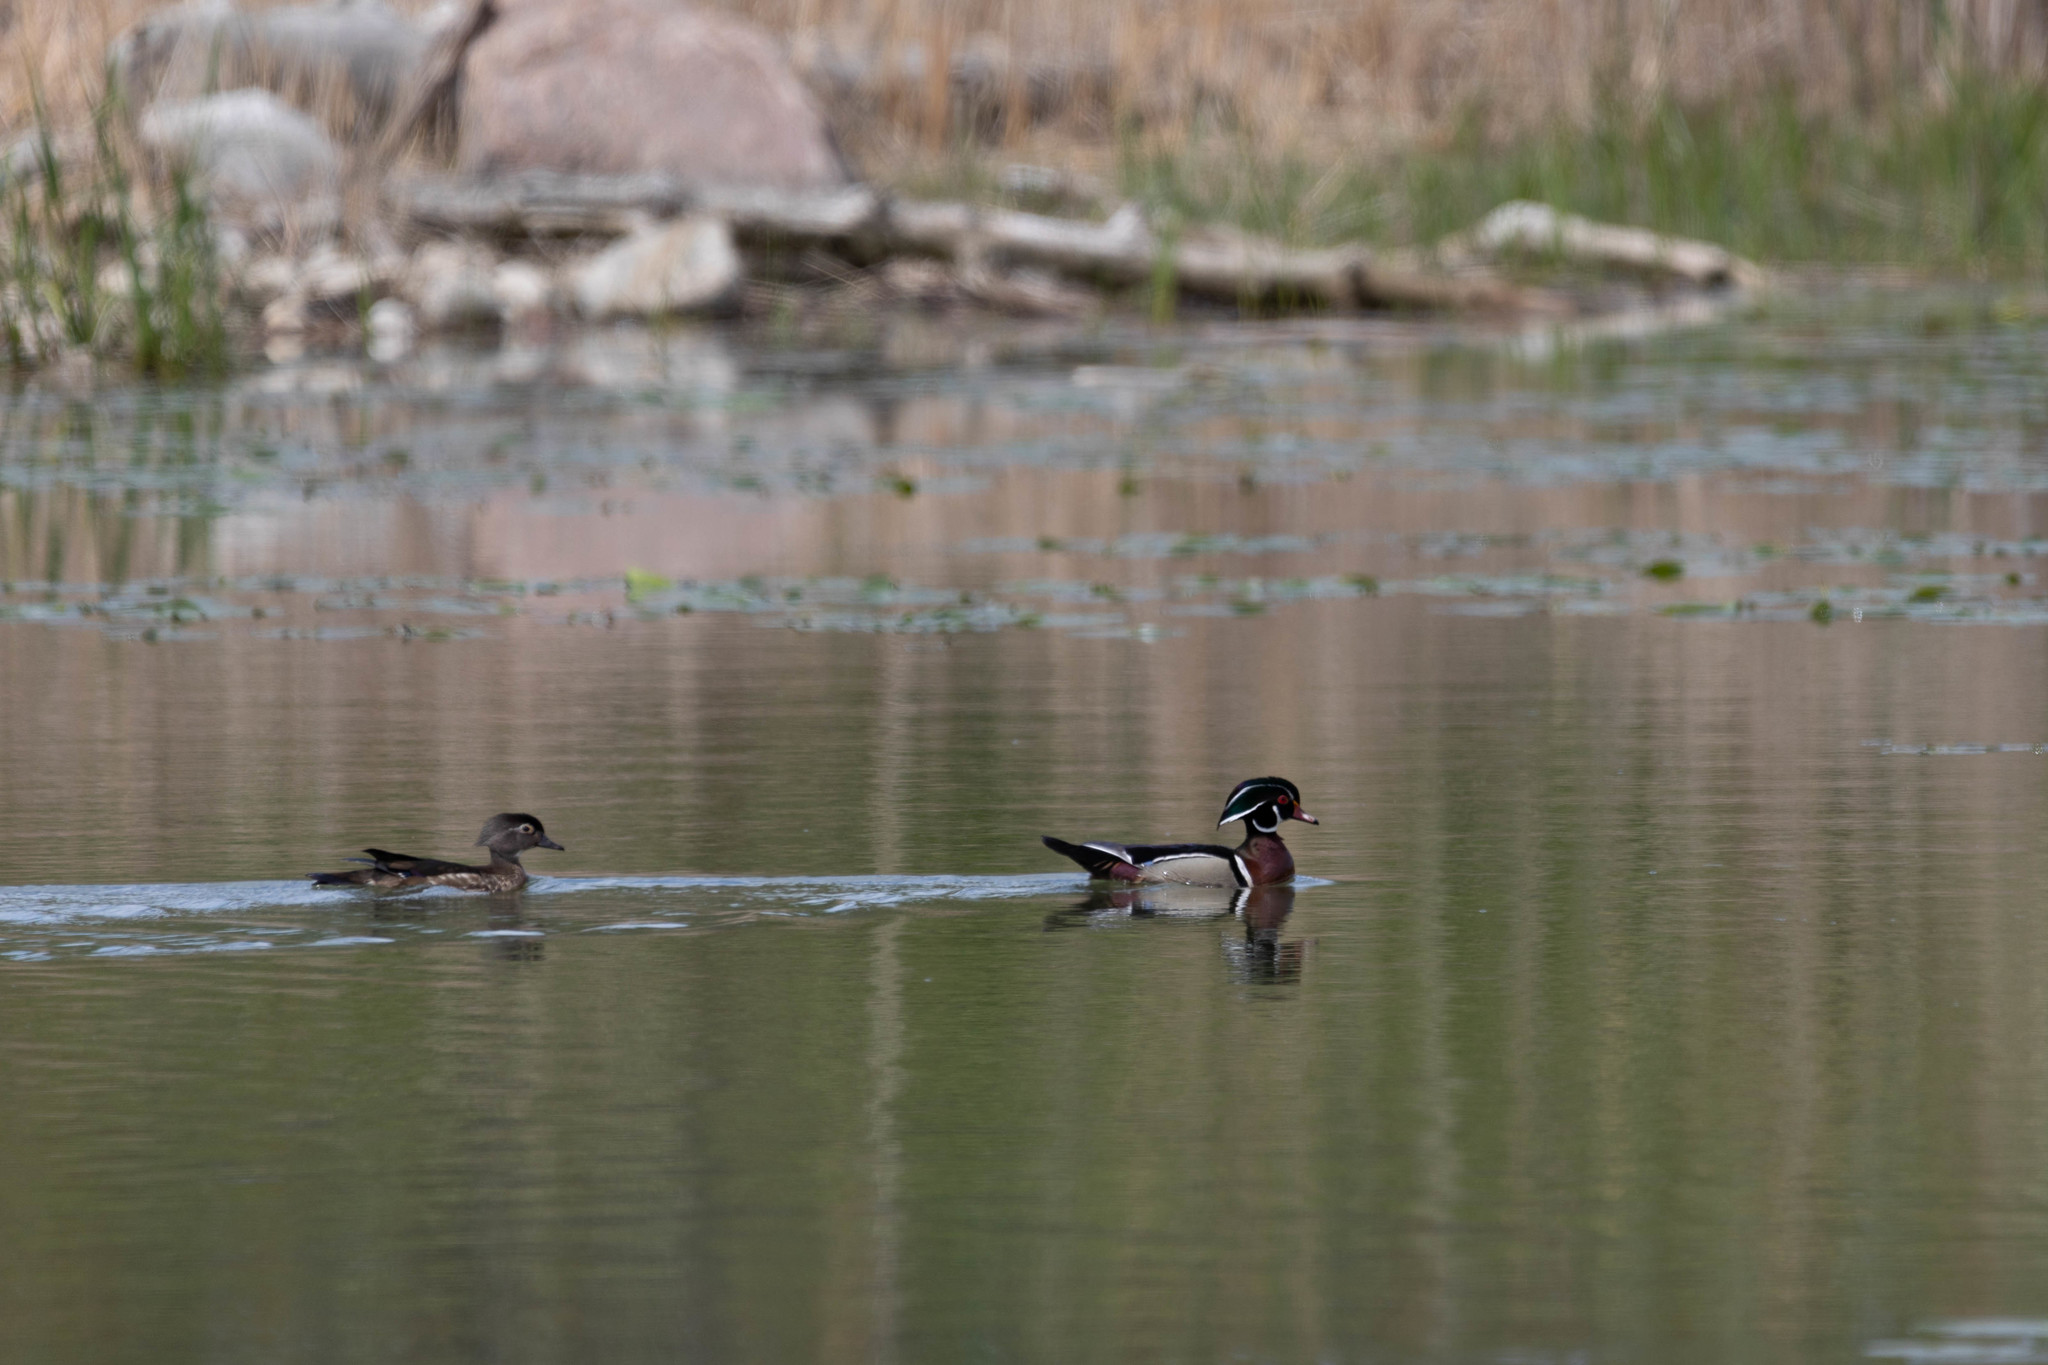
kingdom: Animalia
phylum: Chordata
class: Aves
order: Anseriformes
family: Anatidae
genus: Aix
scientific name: Aix sponsa
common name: Wood duck
